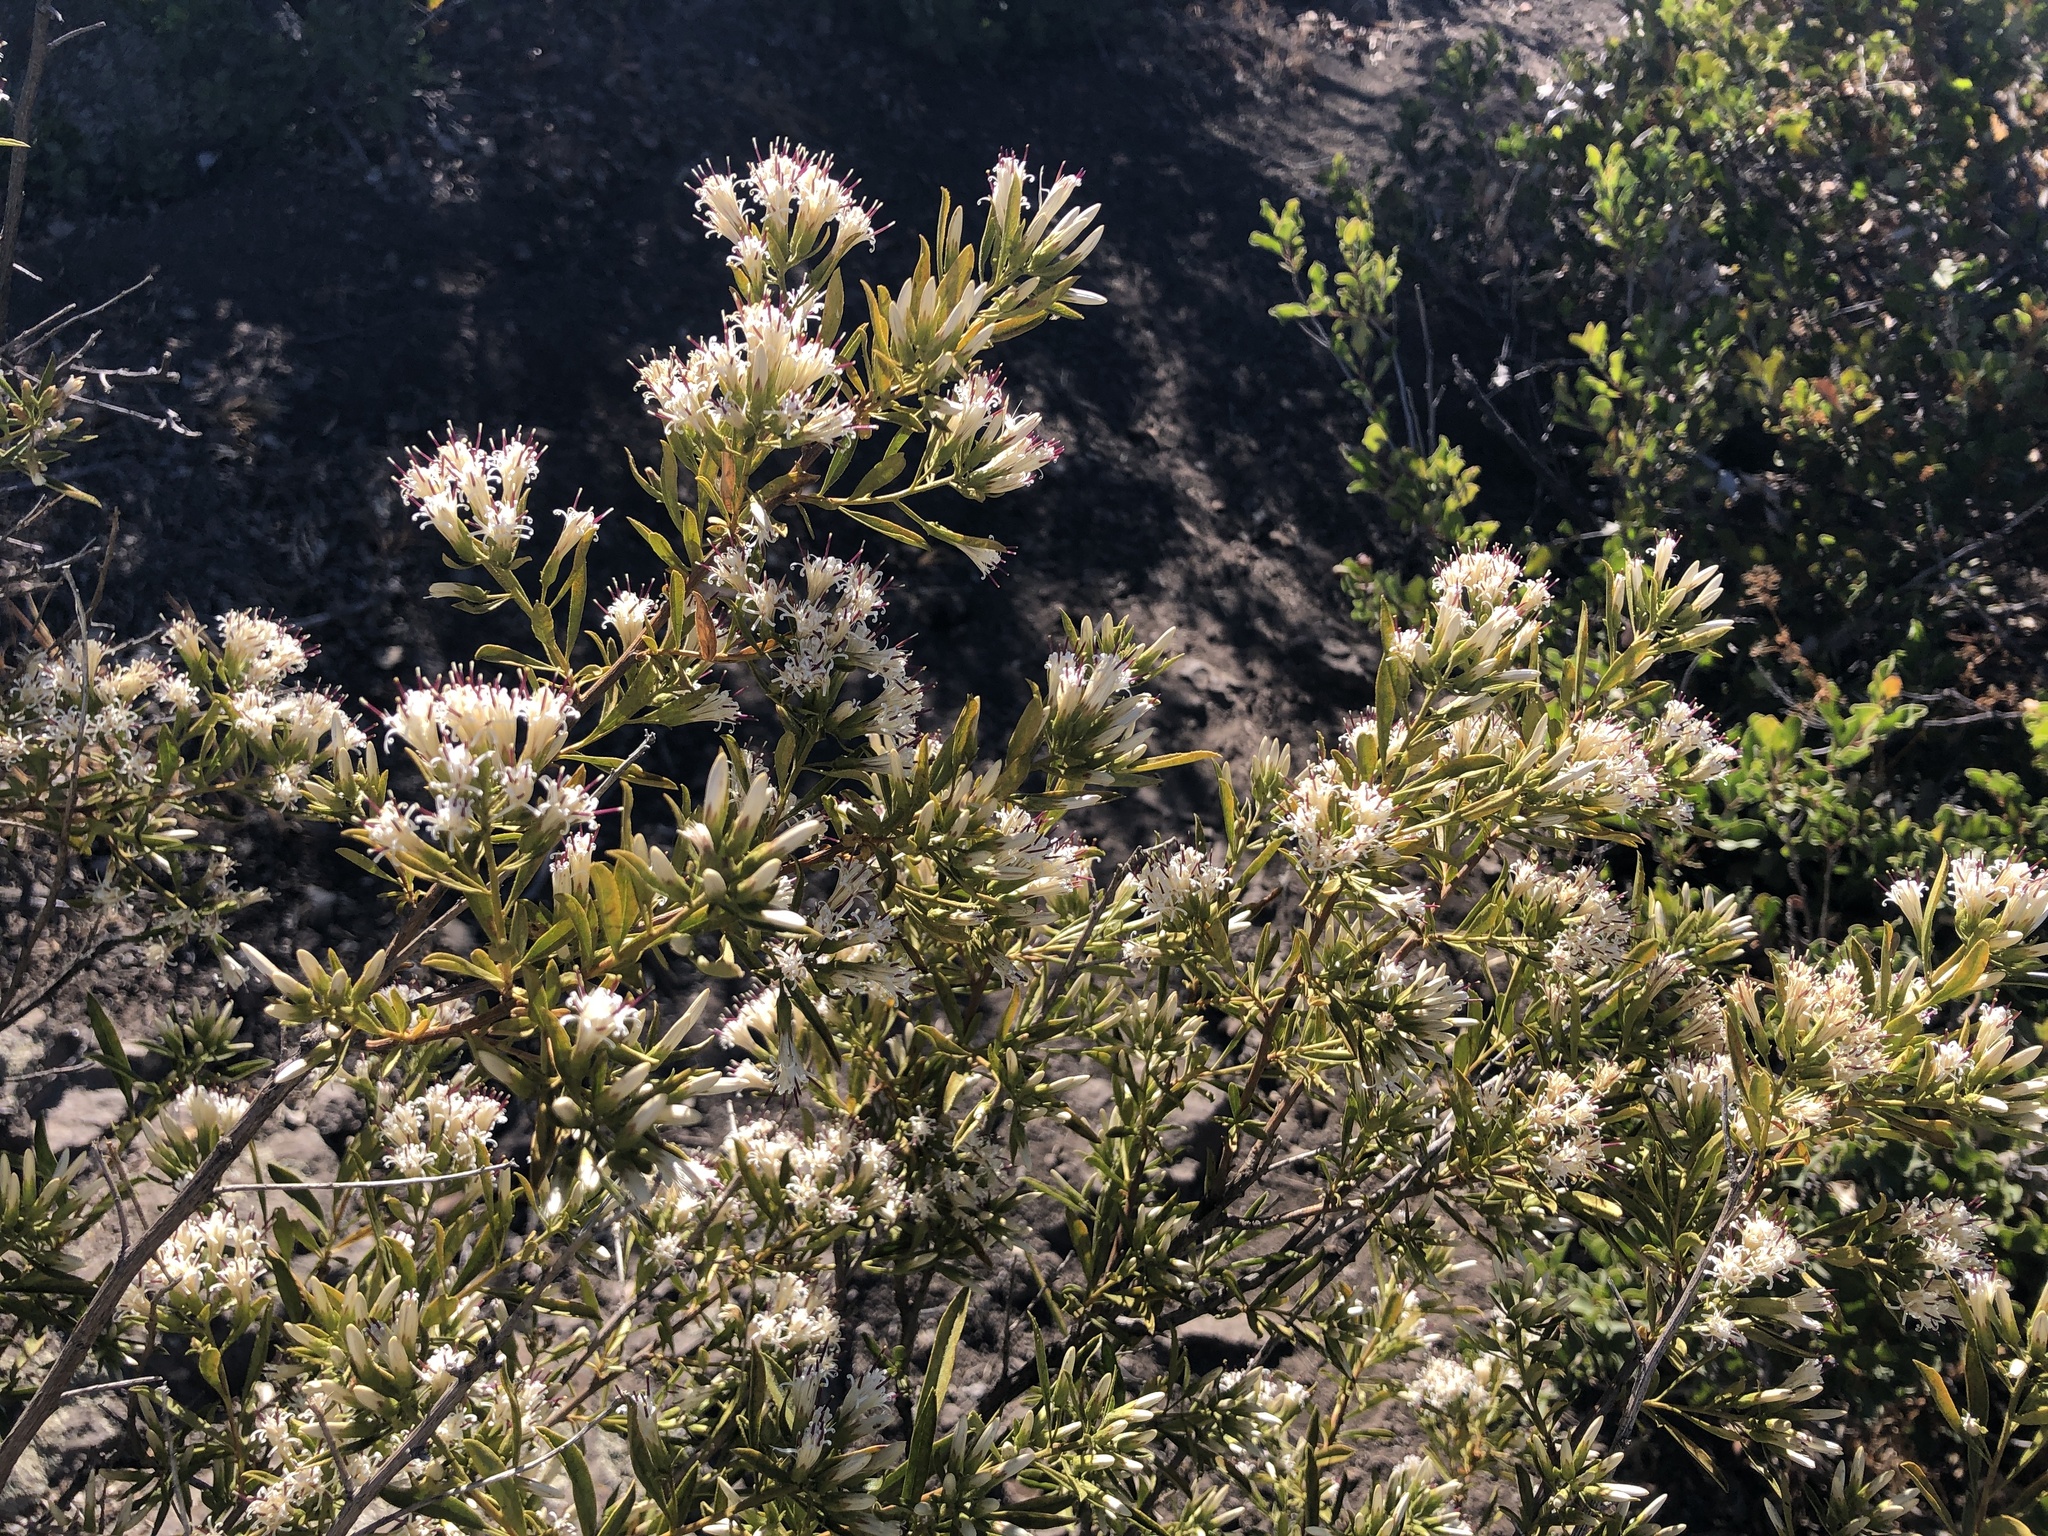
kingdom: Plantae
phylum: Tracheophyta
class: Magnoliopsida
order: Asterales
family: Asteraceae
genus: Gochnatia
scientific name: Gochnatia foliolosa
